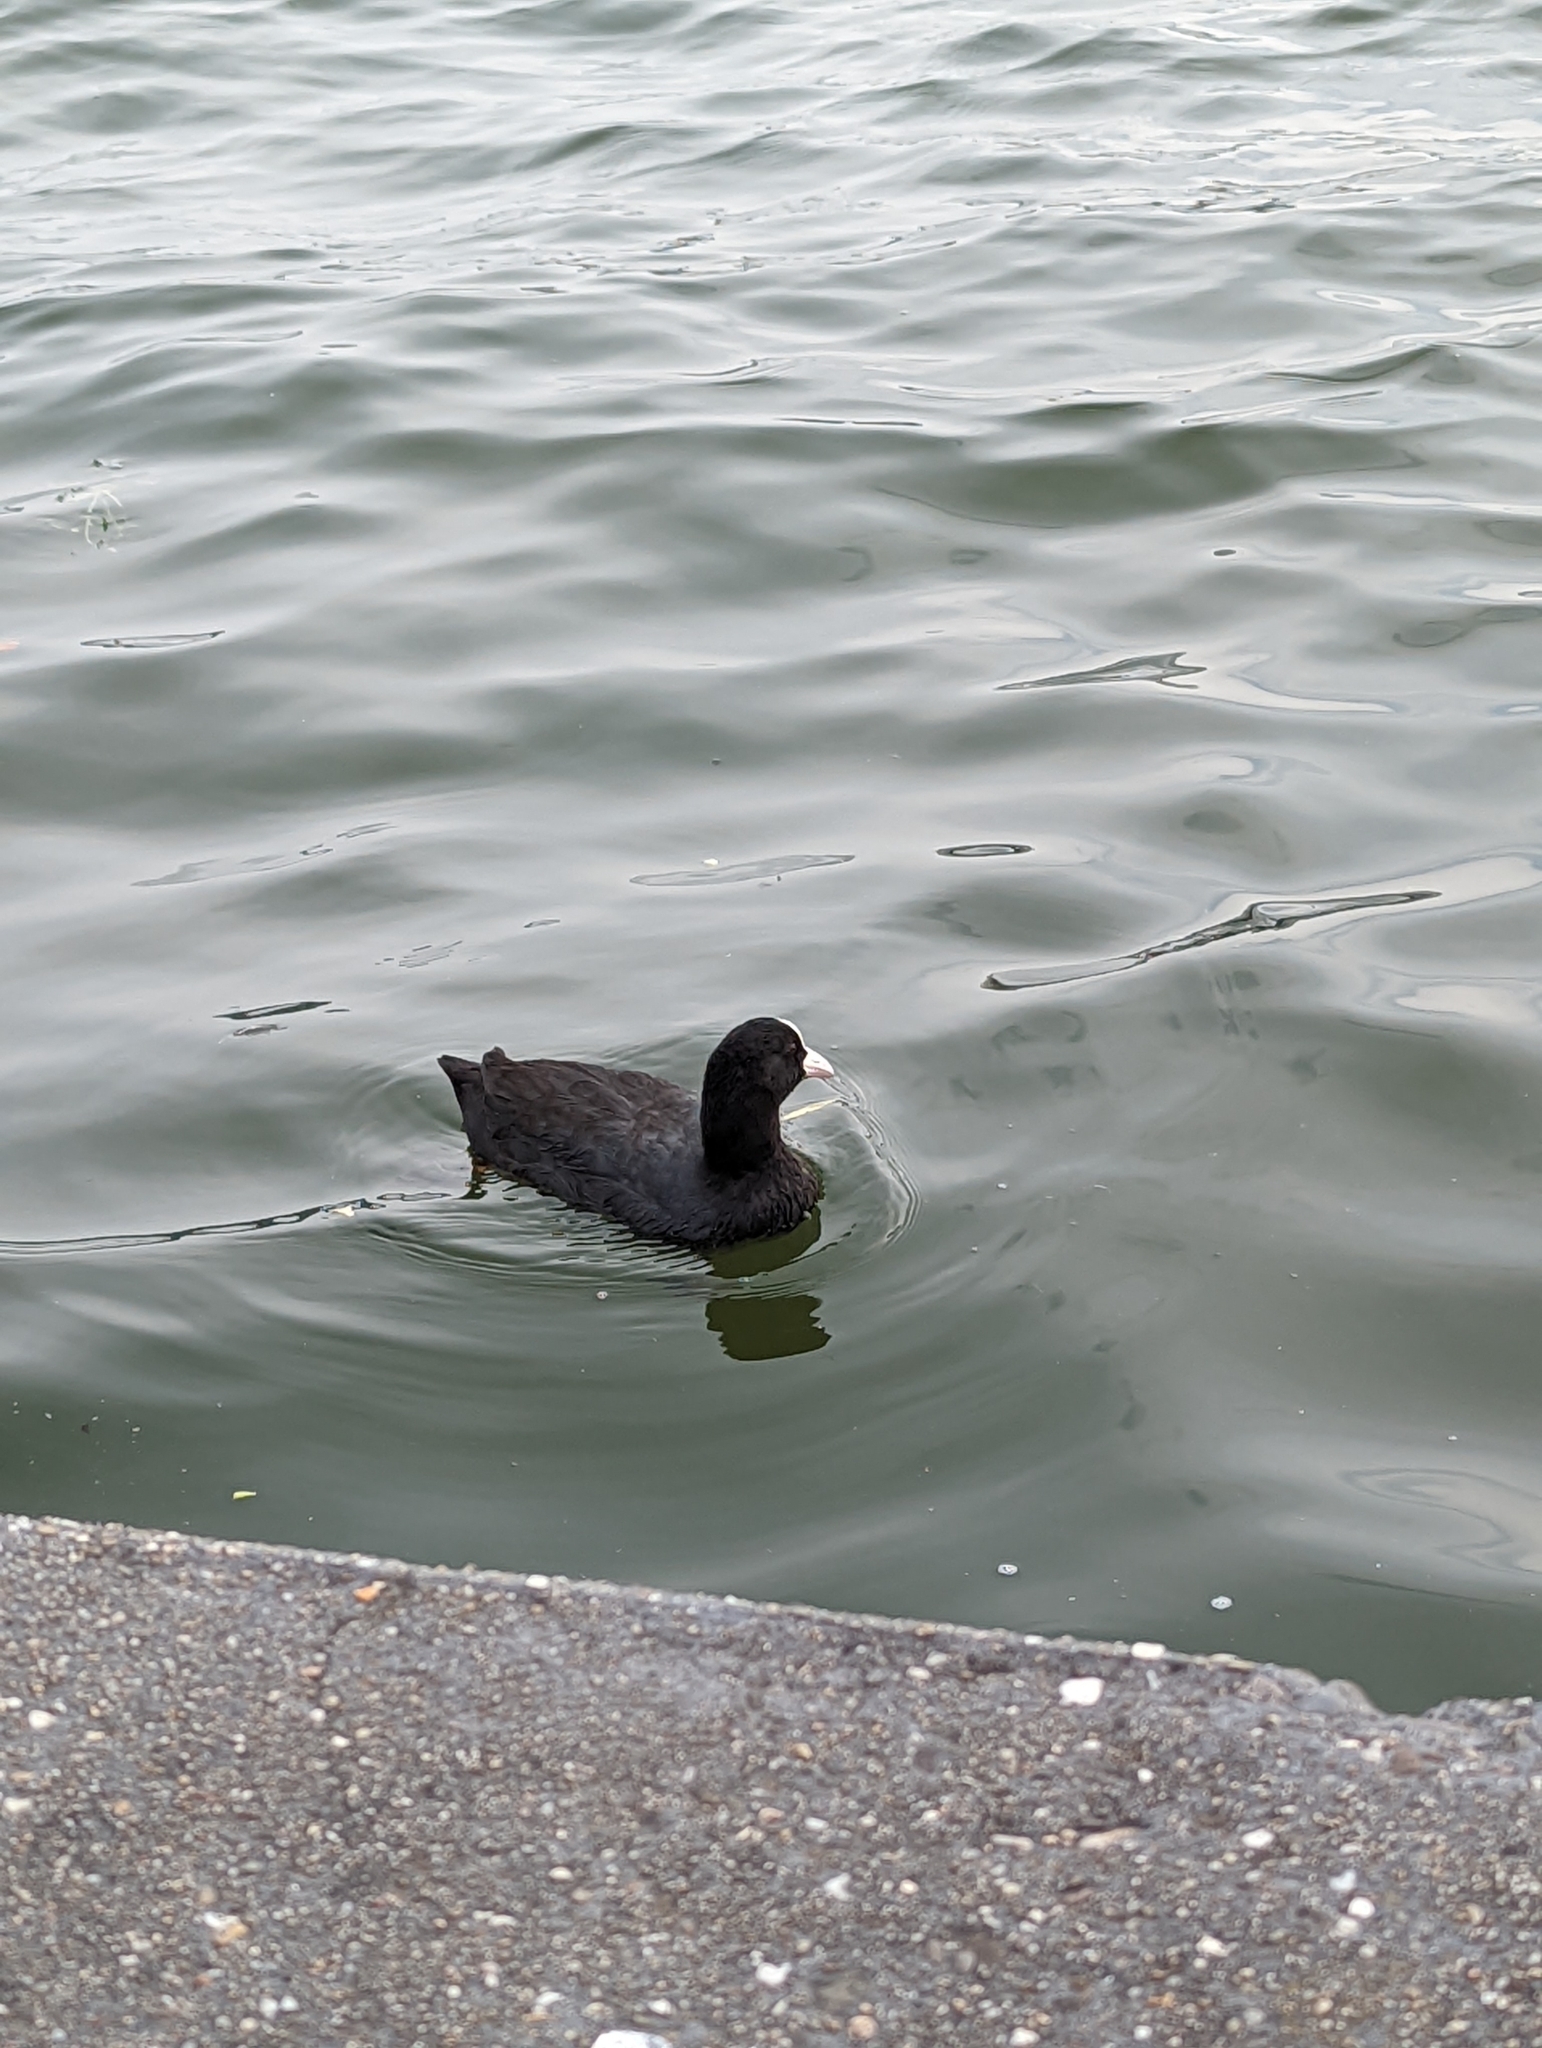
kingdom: Animalia
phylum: Chordata
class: Aves
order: Gruiformes
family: Rallidae
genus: Fulica
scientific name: Fulica atra
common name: Eurasian coot
